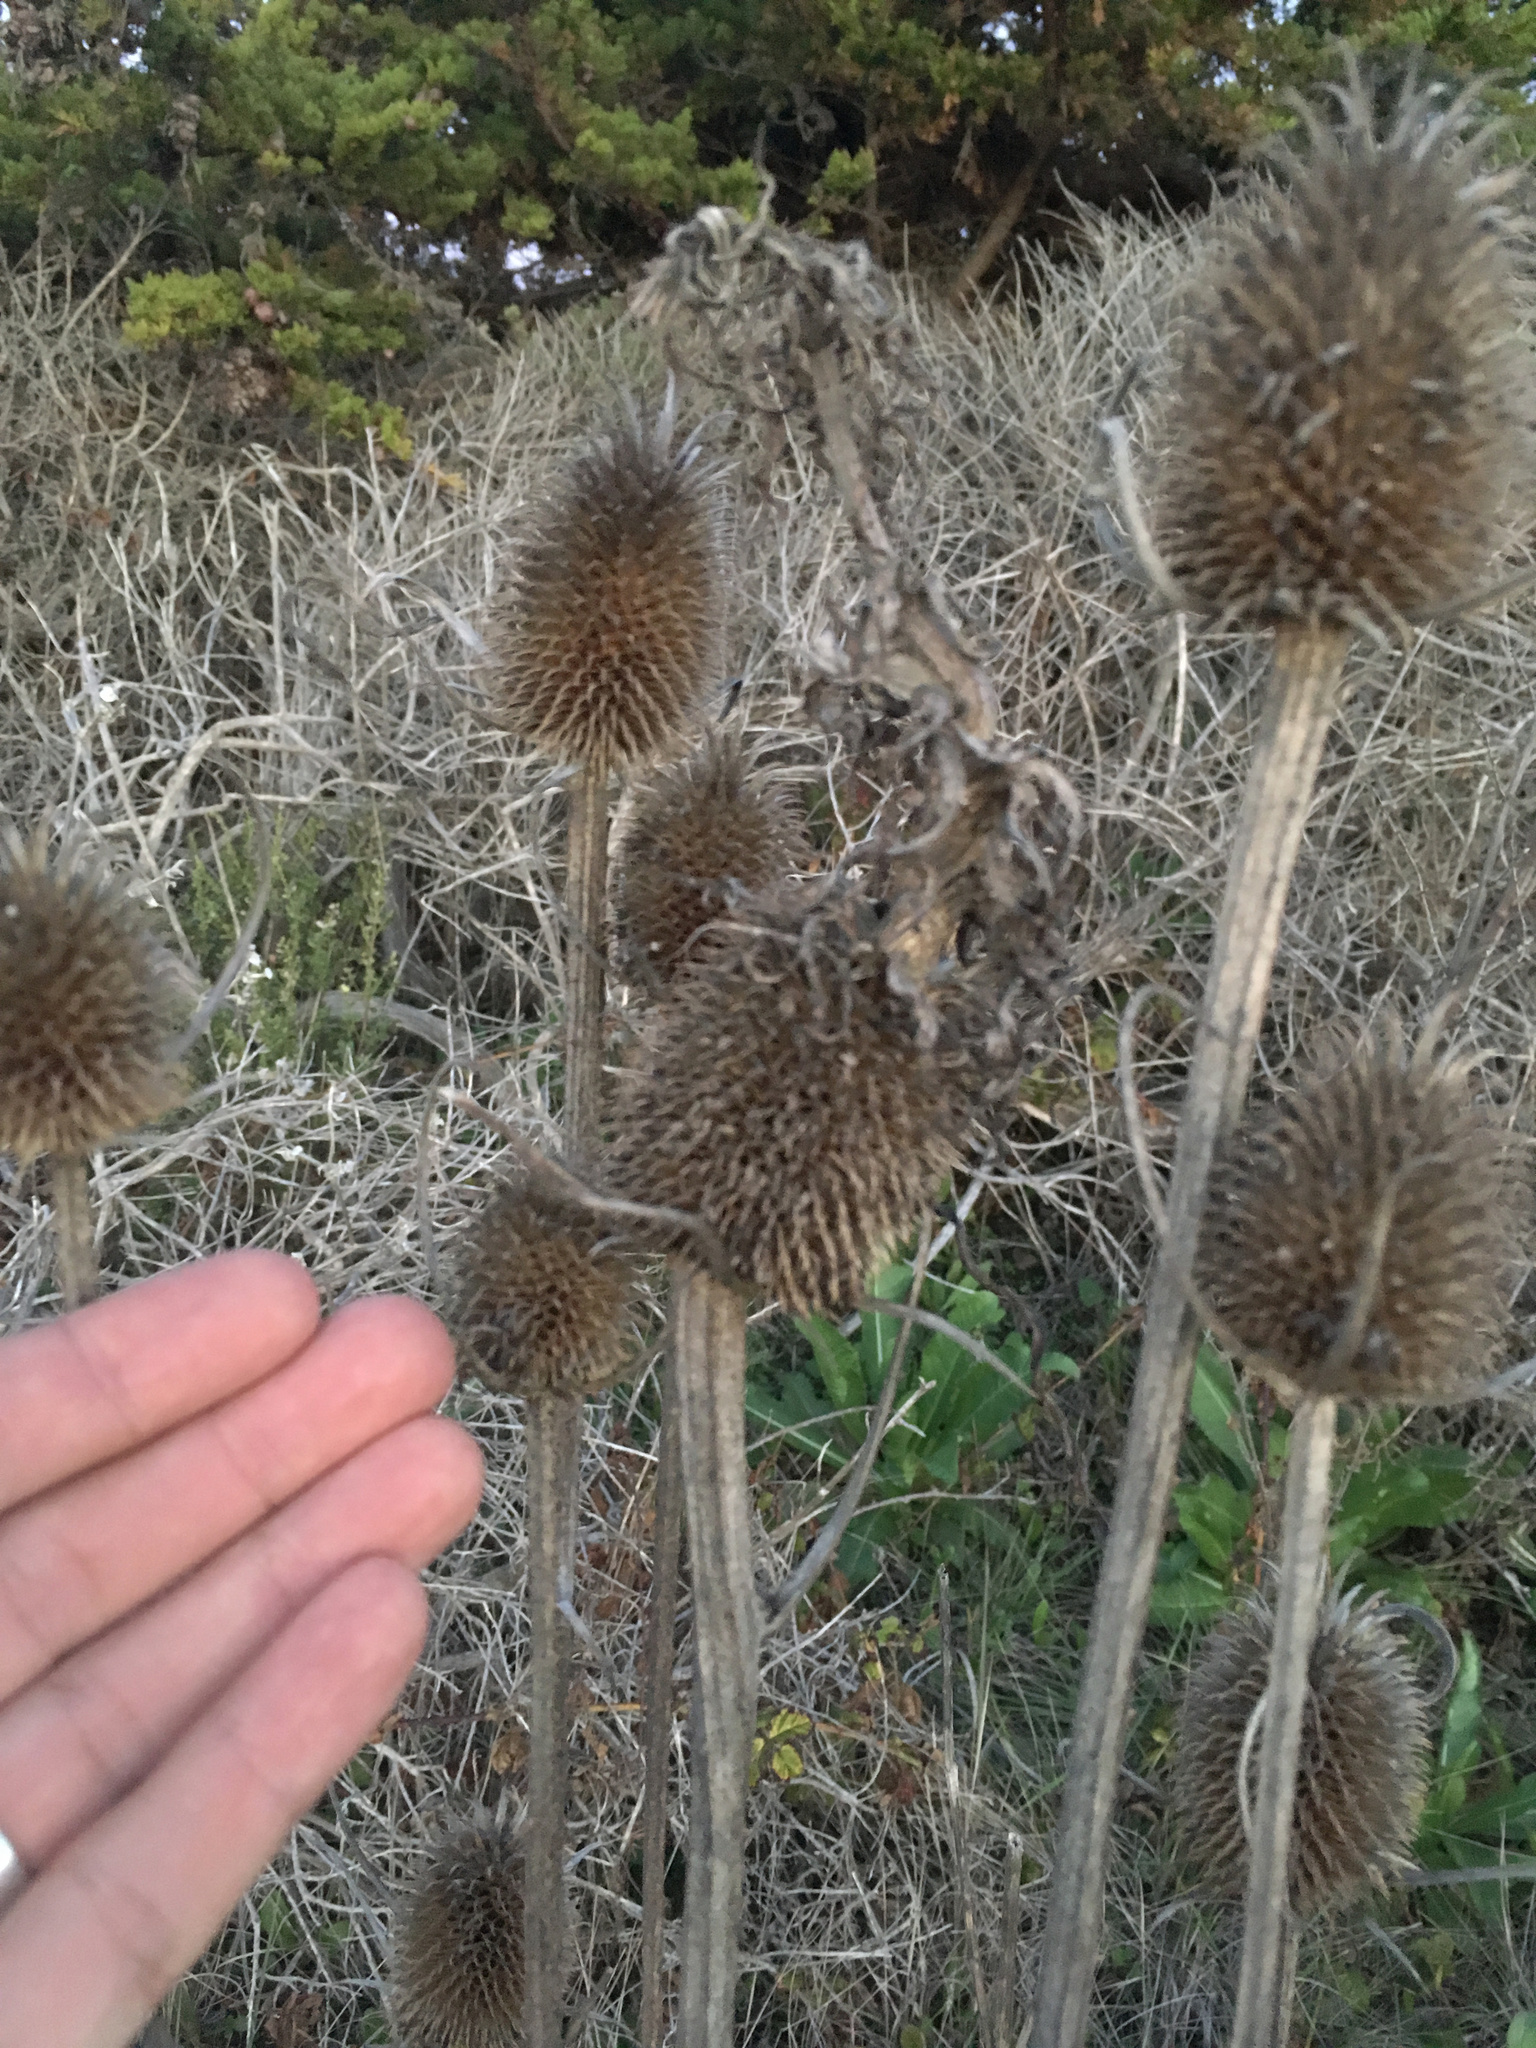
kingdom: Plantae
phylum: Tracheophyta
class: Magnoliopsida
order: Dipsacales
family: Caprifoliaceae
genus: Dipsacus
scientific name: Dipsacus sativus
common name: Fuller's teasel
